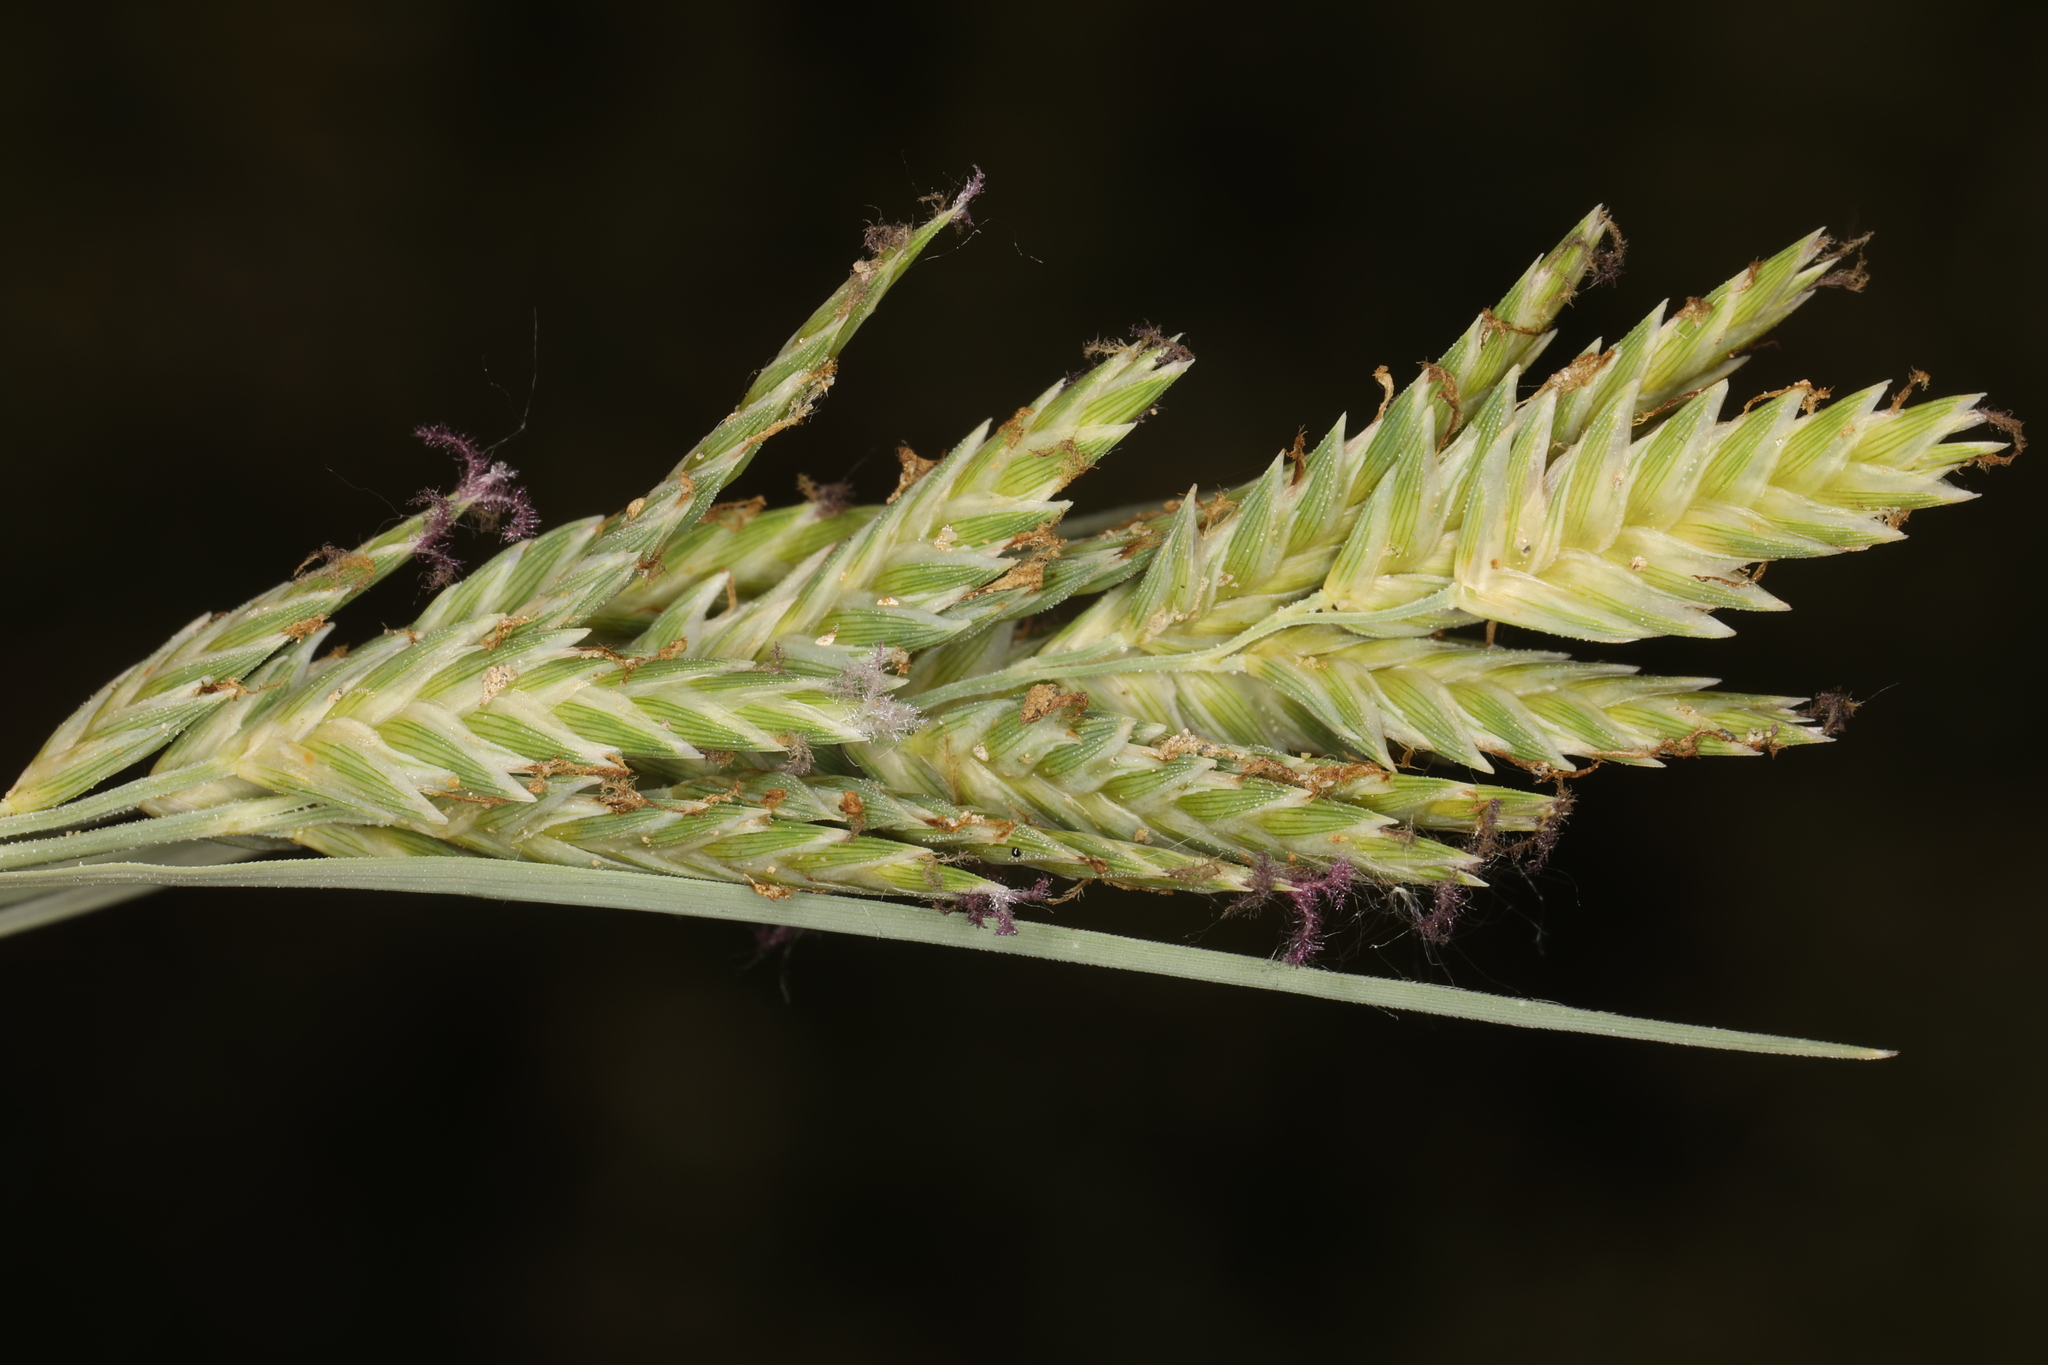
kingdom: Plantae
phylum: Tracheophyta
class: Liliopsida
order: Poales
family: Poaceae
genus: Distichlis
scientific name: Distichlis spicata
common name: Saltgrass
